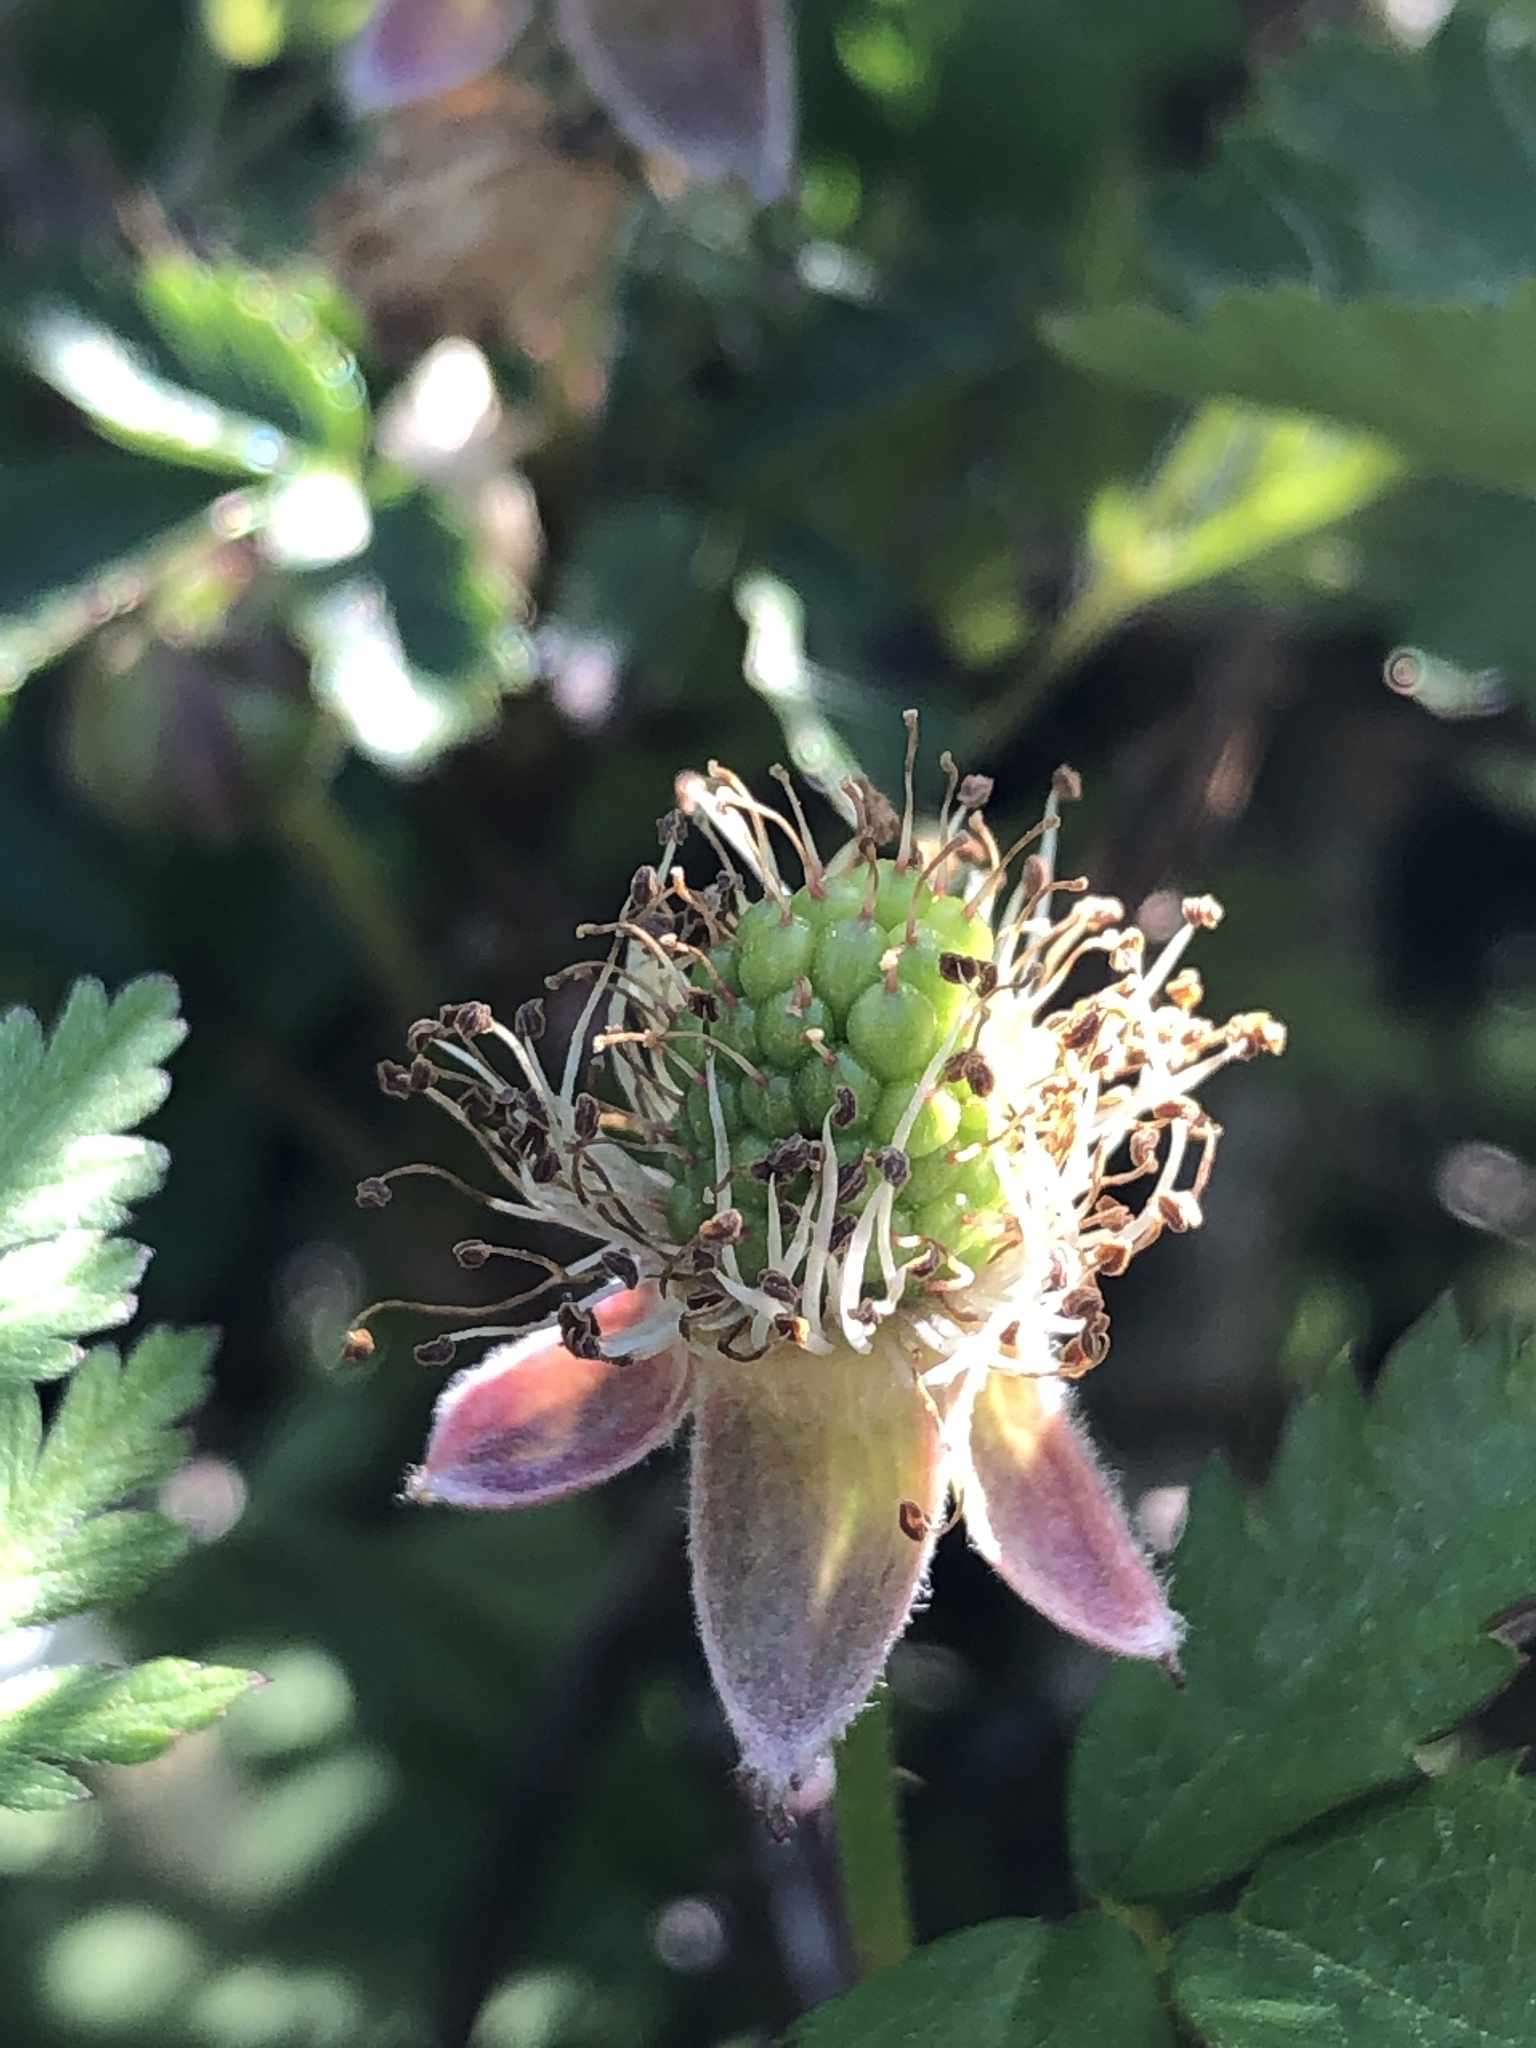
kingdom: Plantae
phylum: Tracheophyta
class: Magnoliopsida
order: Rosales
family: Rosaceae
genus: Rubus
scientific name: Rubus trivialis
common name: Southern dewberry
